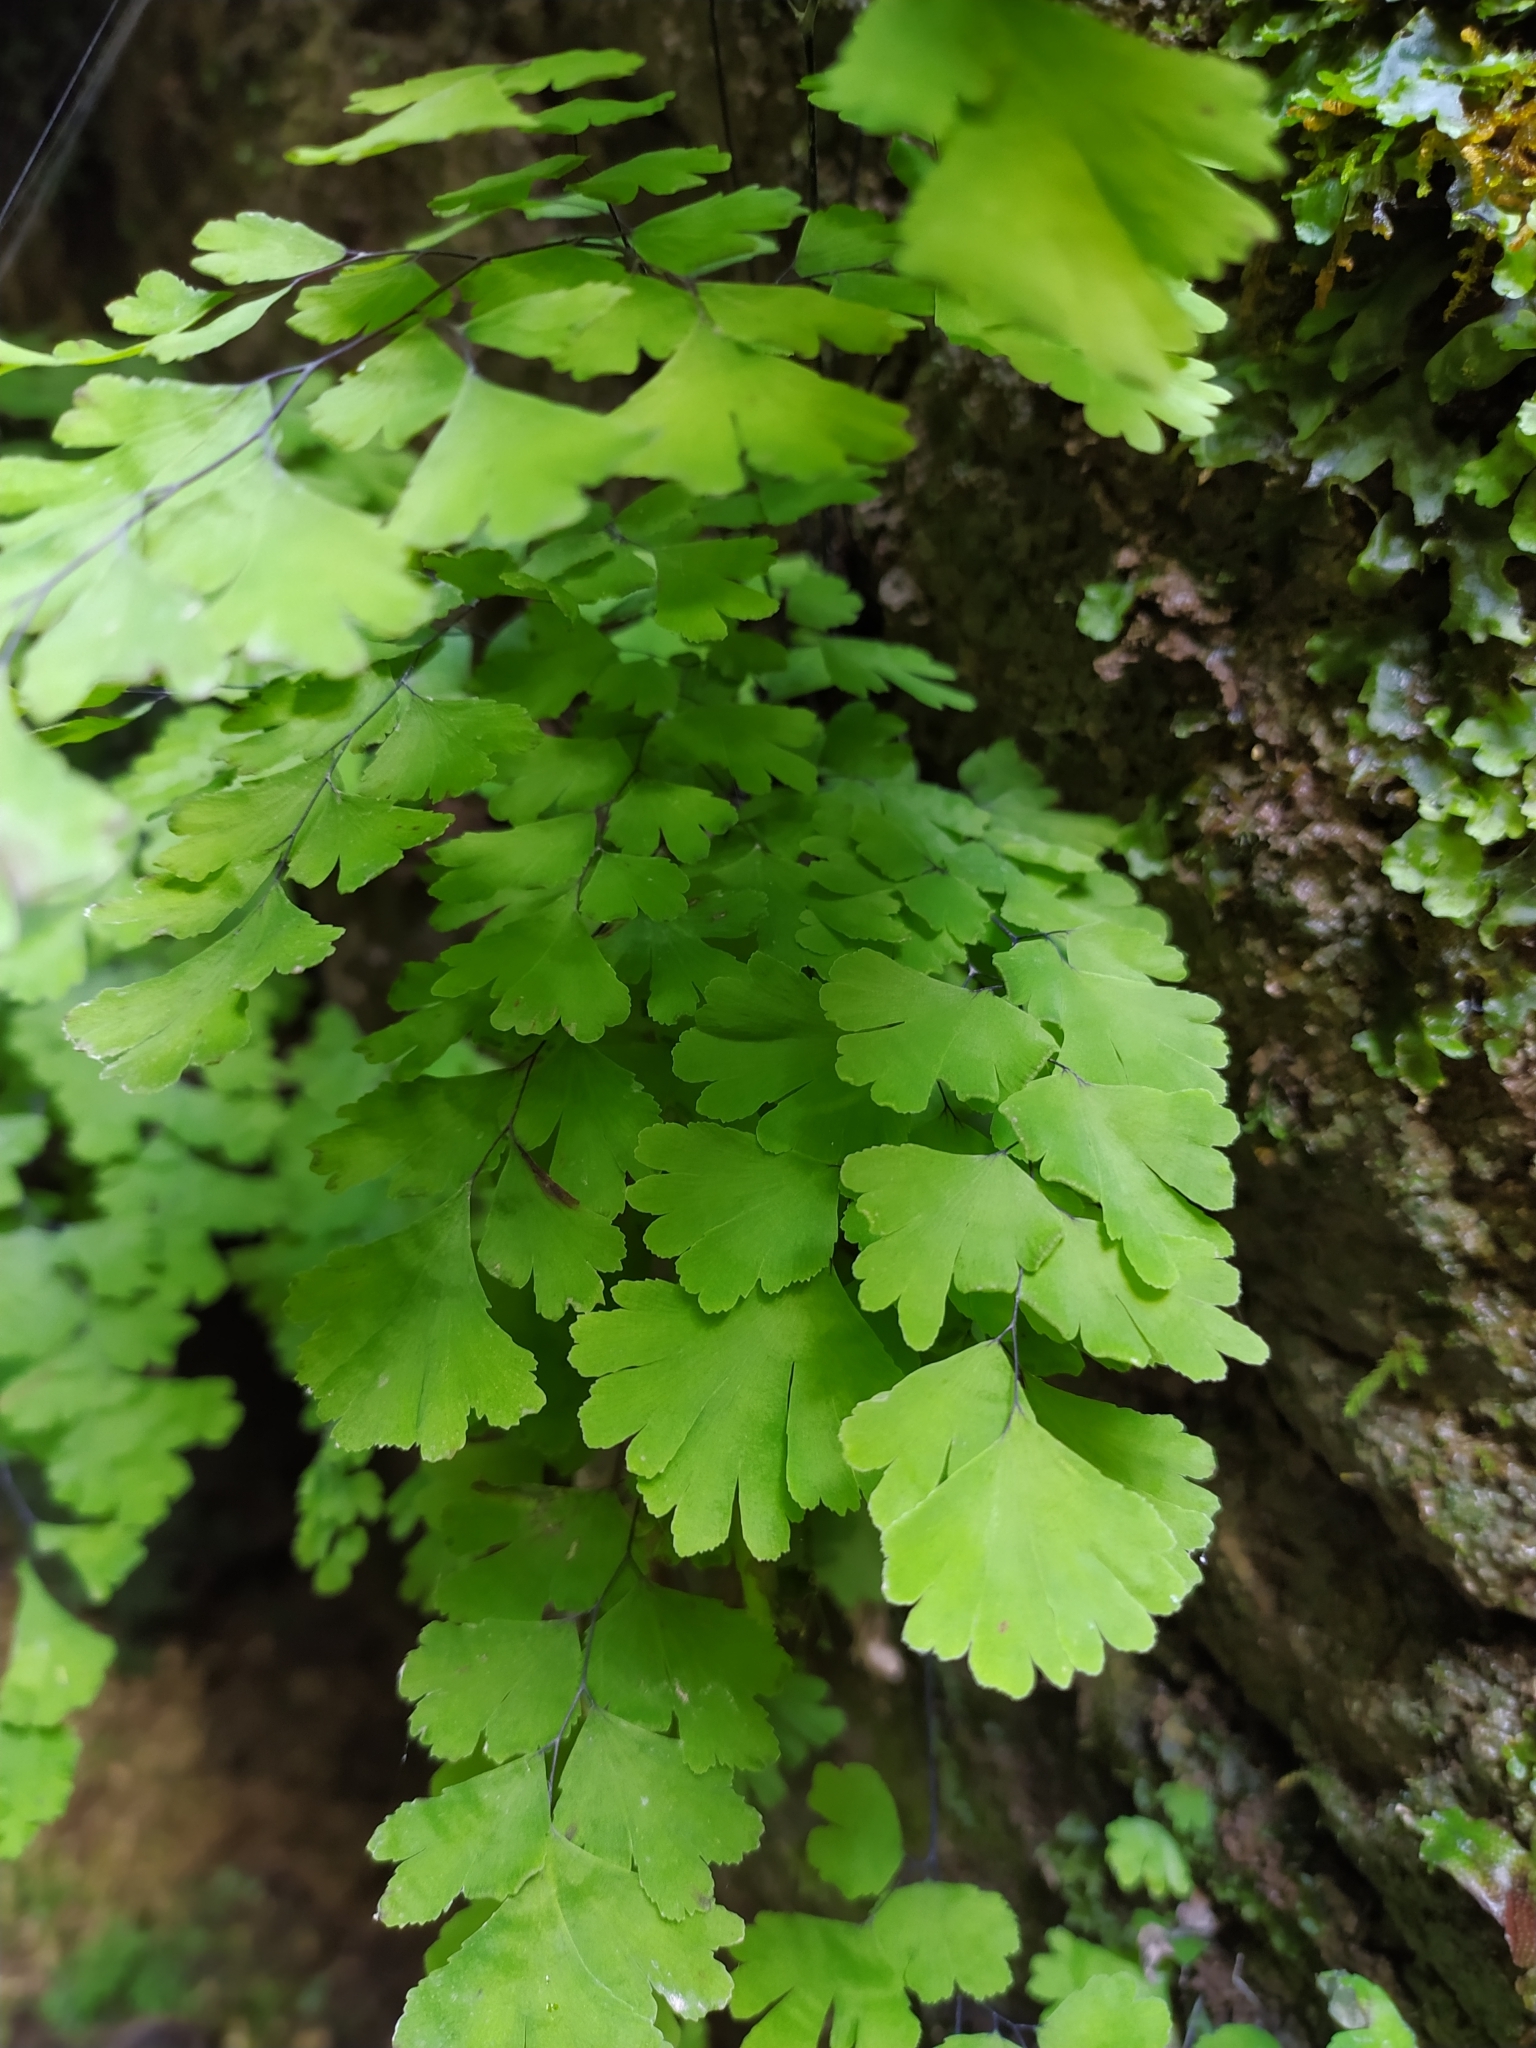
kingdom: Plantae
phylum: Tracheophyta
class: Polypodiopsida
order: Polypodiales
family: Pteridaceae
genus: Adiantum
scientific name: Adiantum capillus-veneris
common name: Maidenhair fern
